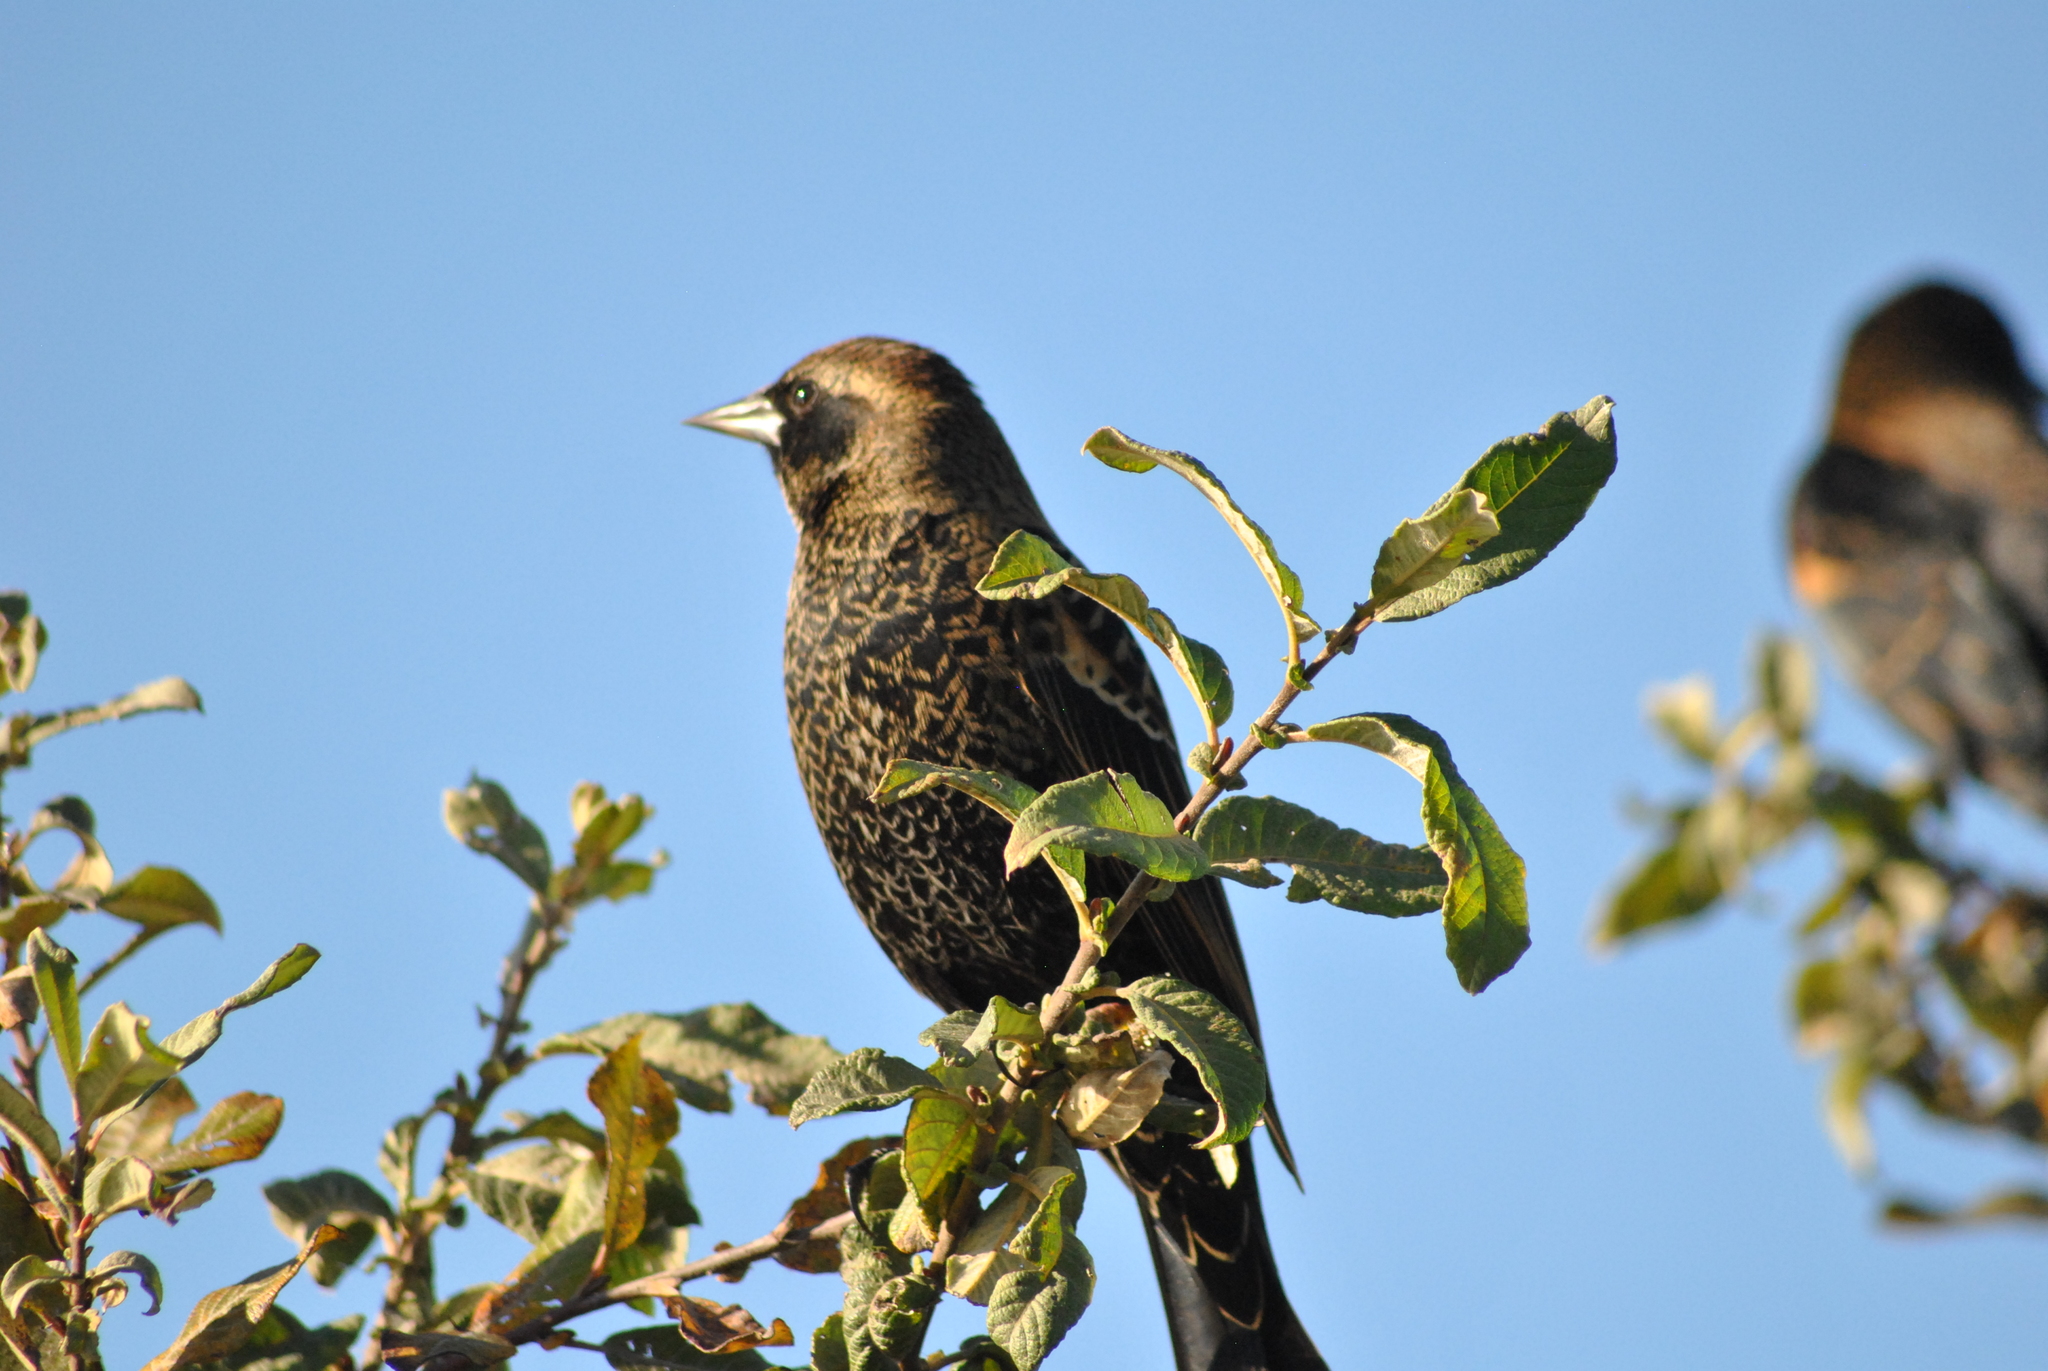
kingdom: Animalia
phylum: Chordata
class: Aves
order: Passeriformes
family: Icteridae
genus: Agelaius
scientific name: Agelaius phoeniceus
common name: Red-winged blackbird
